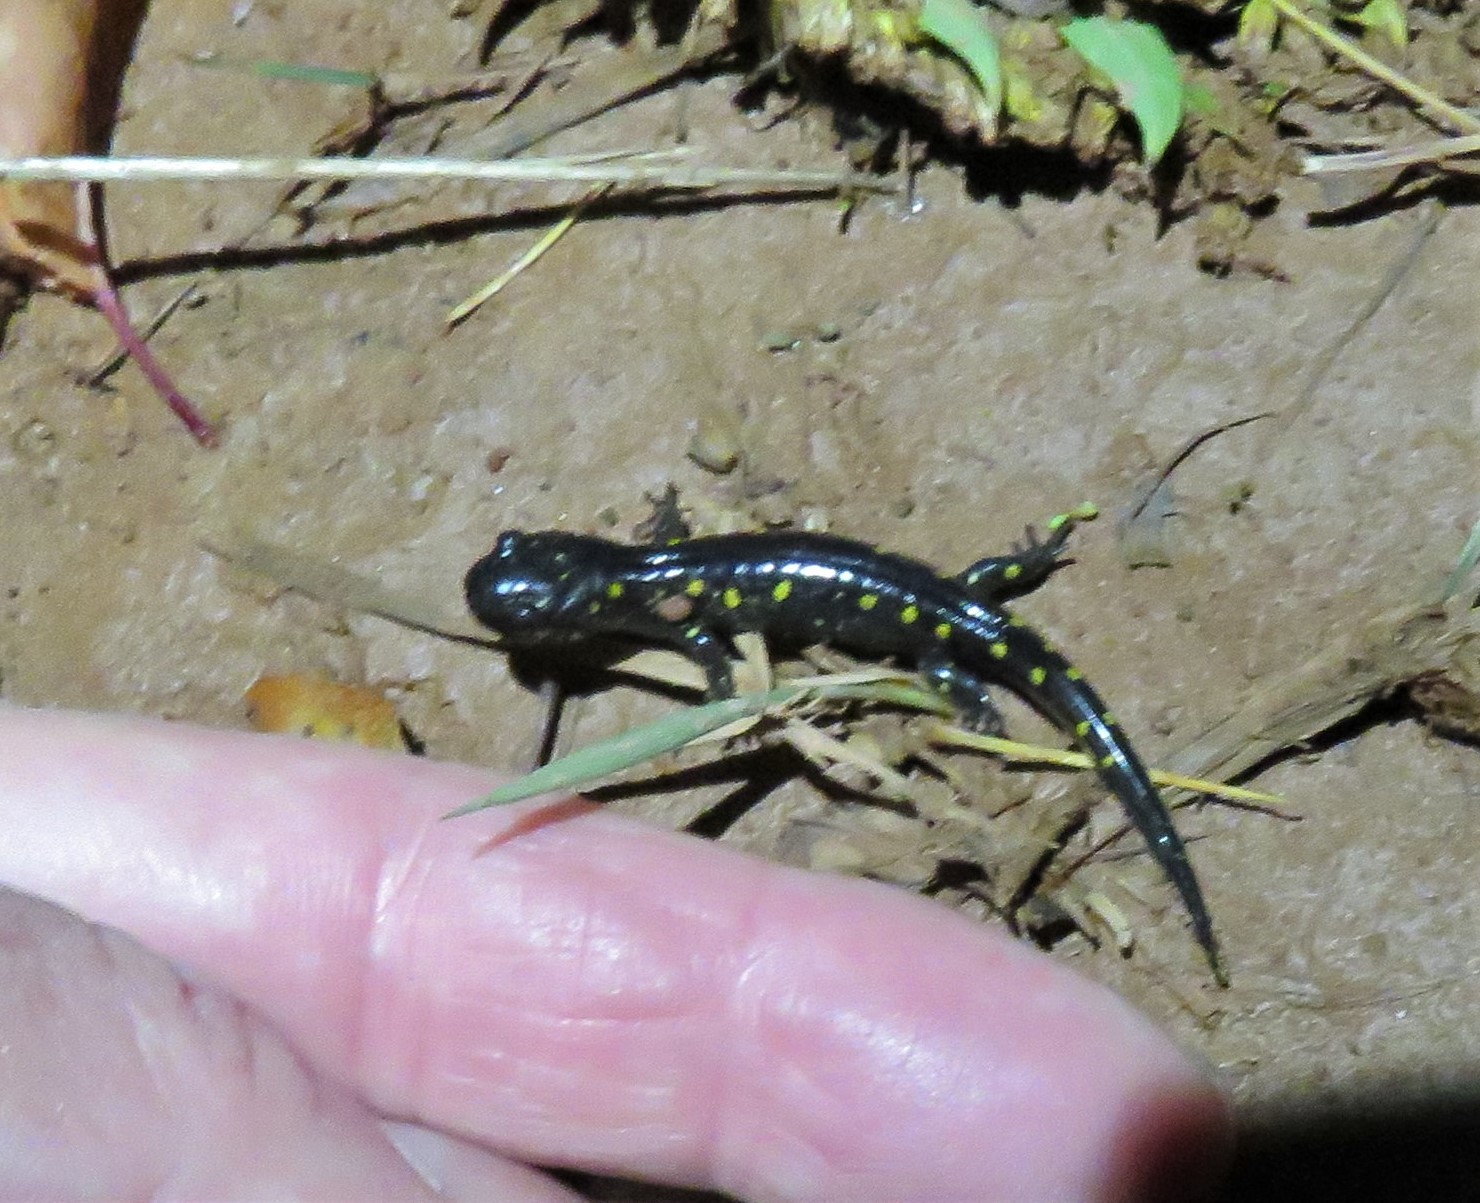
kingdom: Animalia
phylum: Chordata
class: Amphibia
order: Caudata
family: Ambystomatidae
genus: Ambystoma
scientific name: Ambystoma maculatum
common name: Spotted salamander
